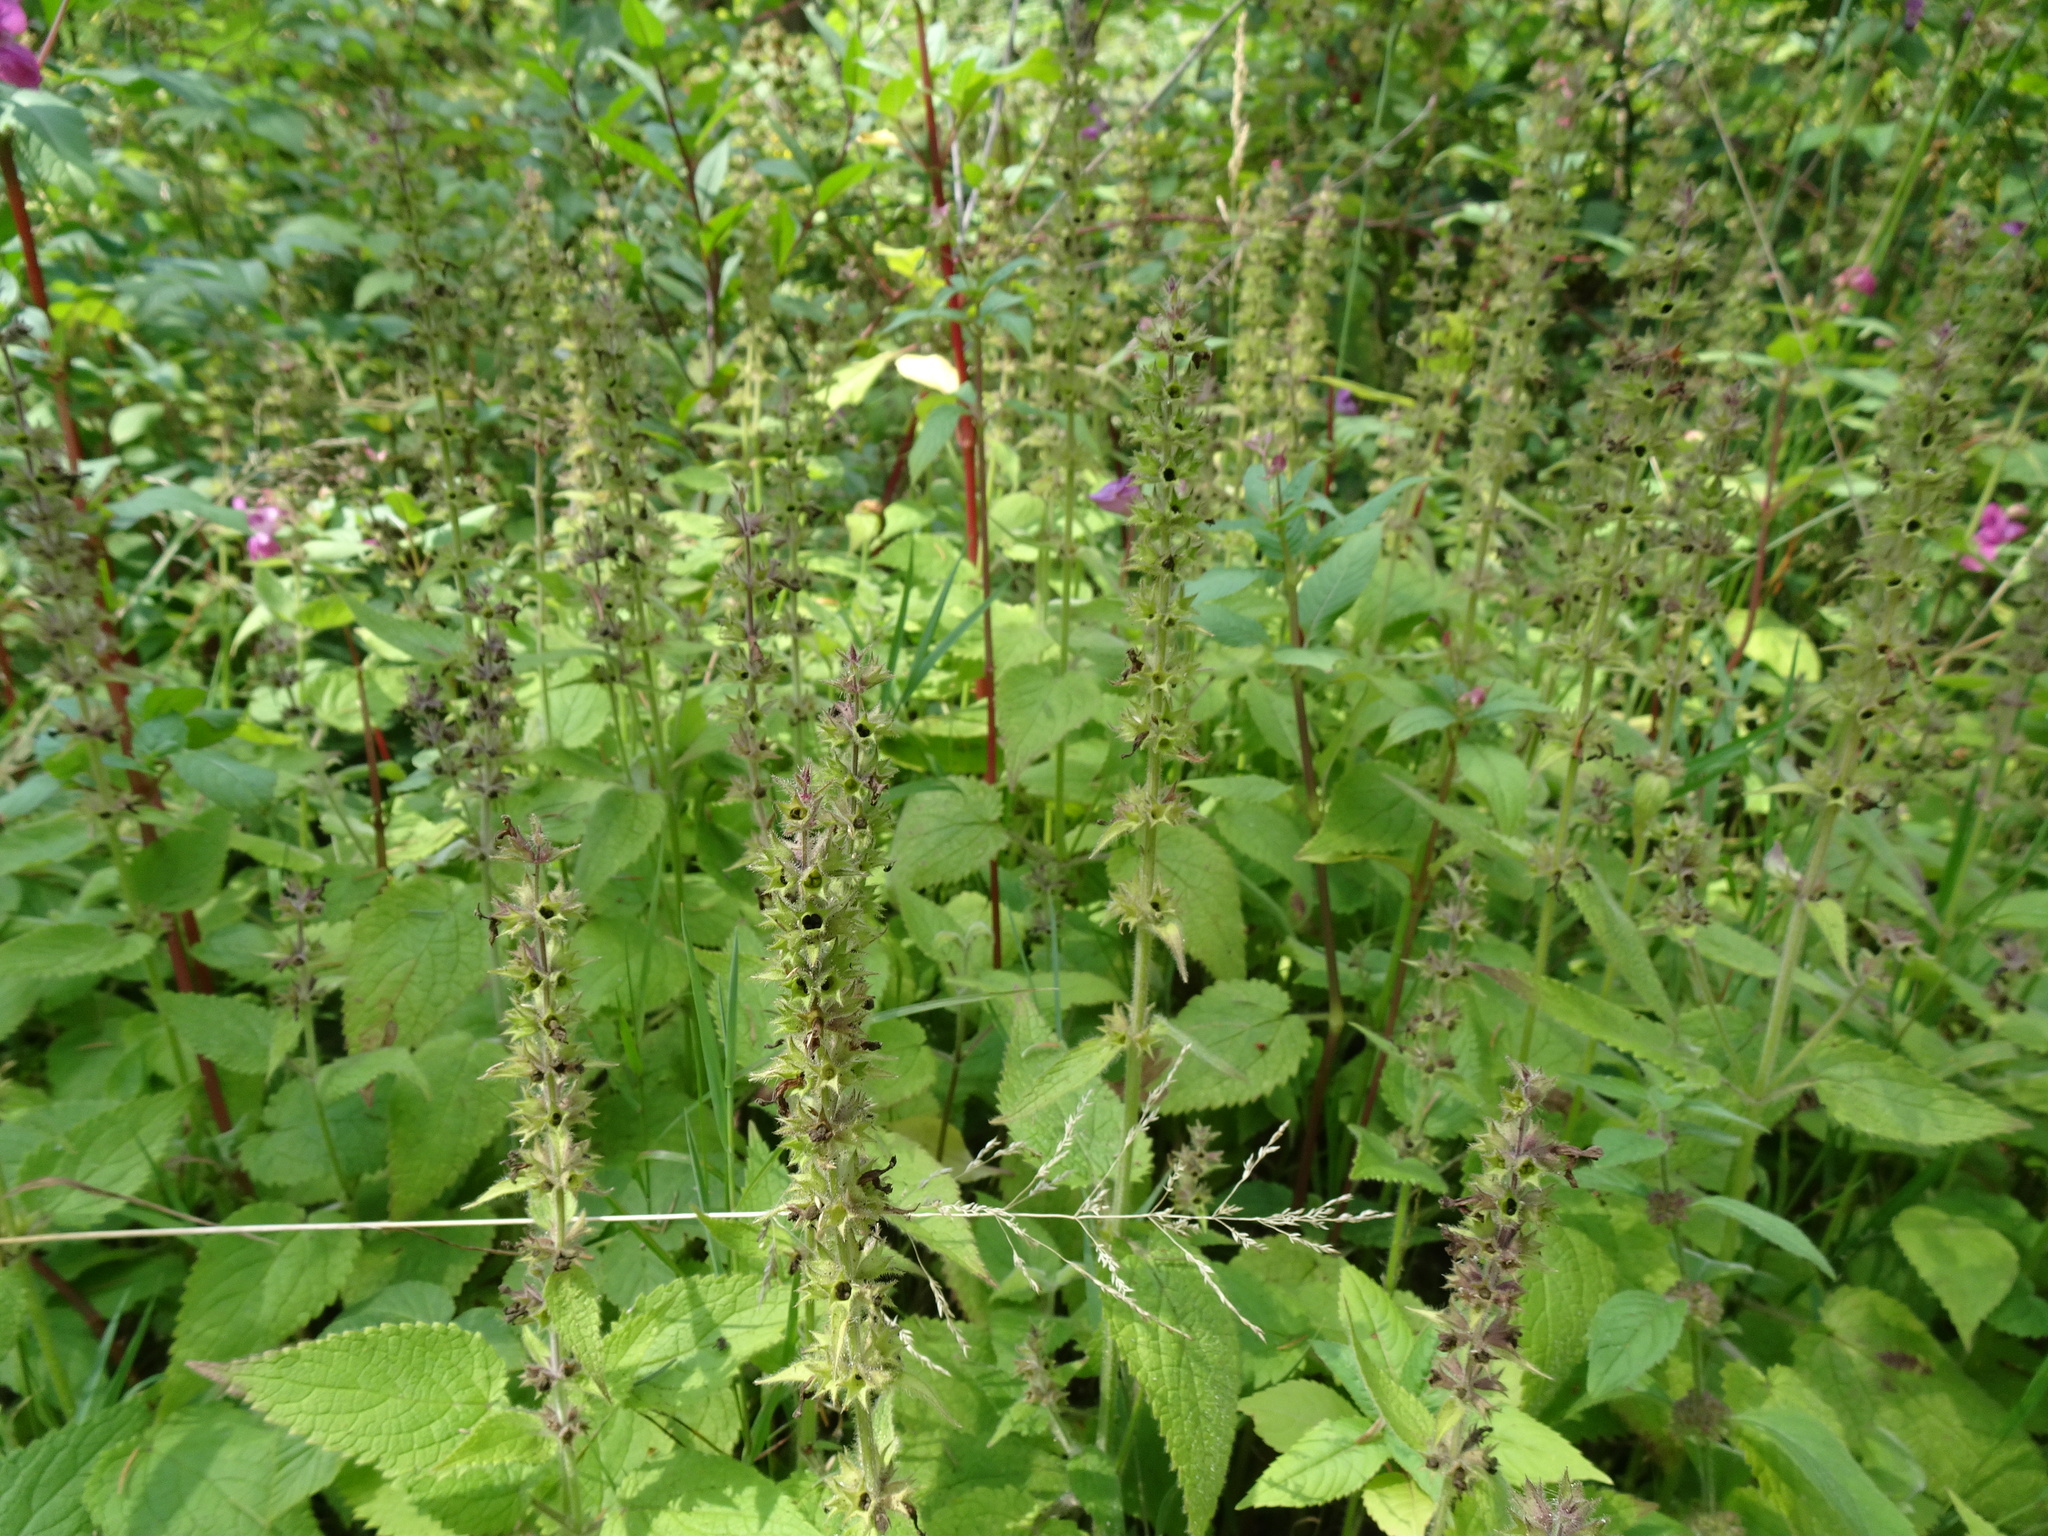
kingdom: Plantae
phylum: Tracheophyta
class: Magnoliopsida
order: Lamiales
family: Lamiaceae
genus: Stachys
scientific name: Stachys sylvatica
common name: Hedge woundwort
